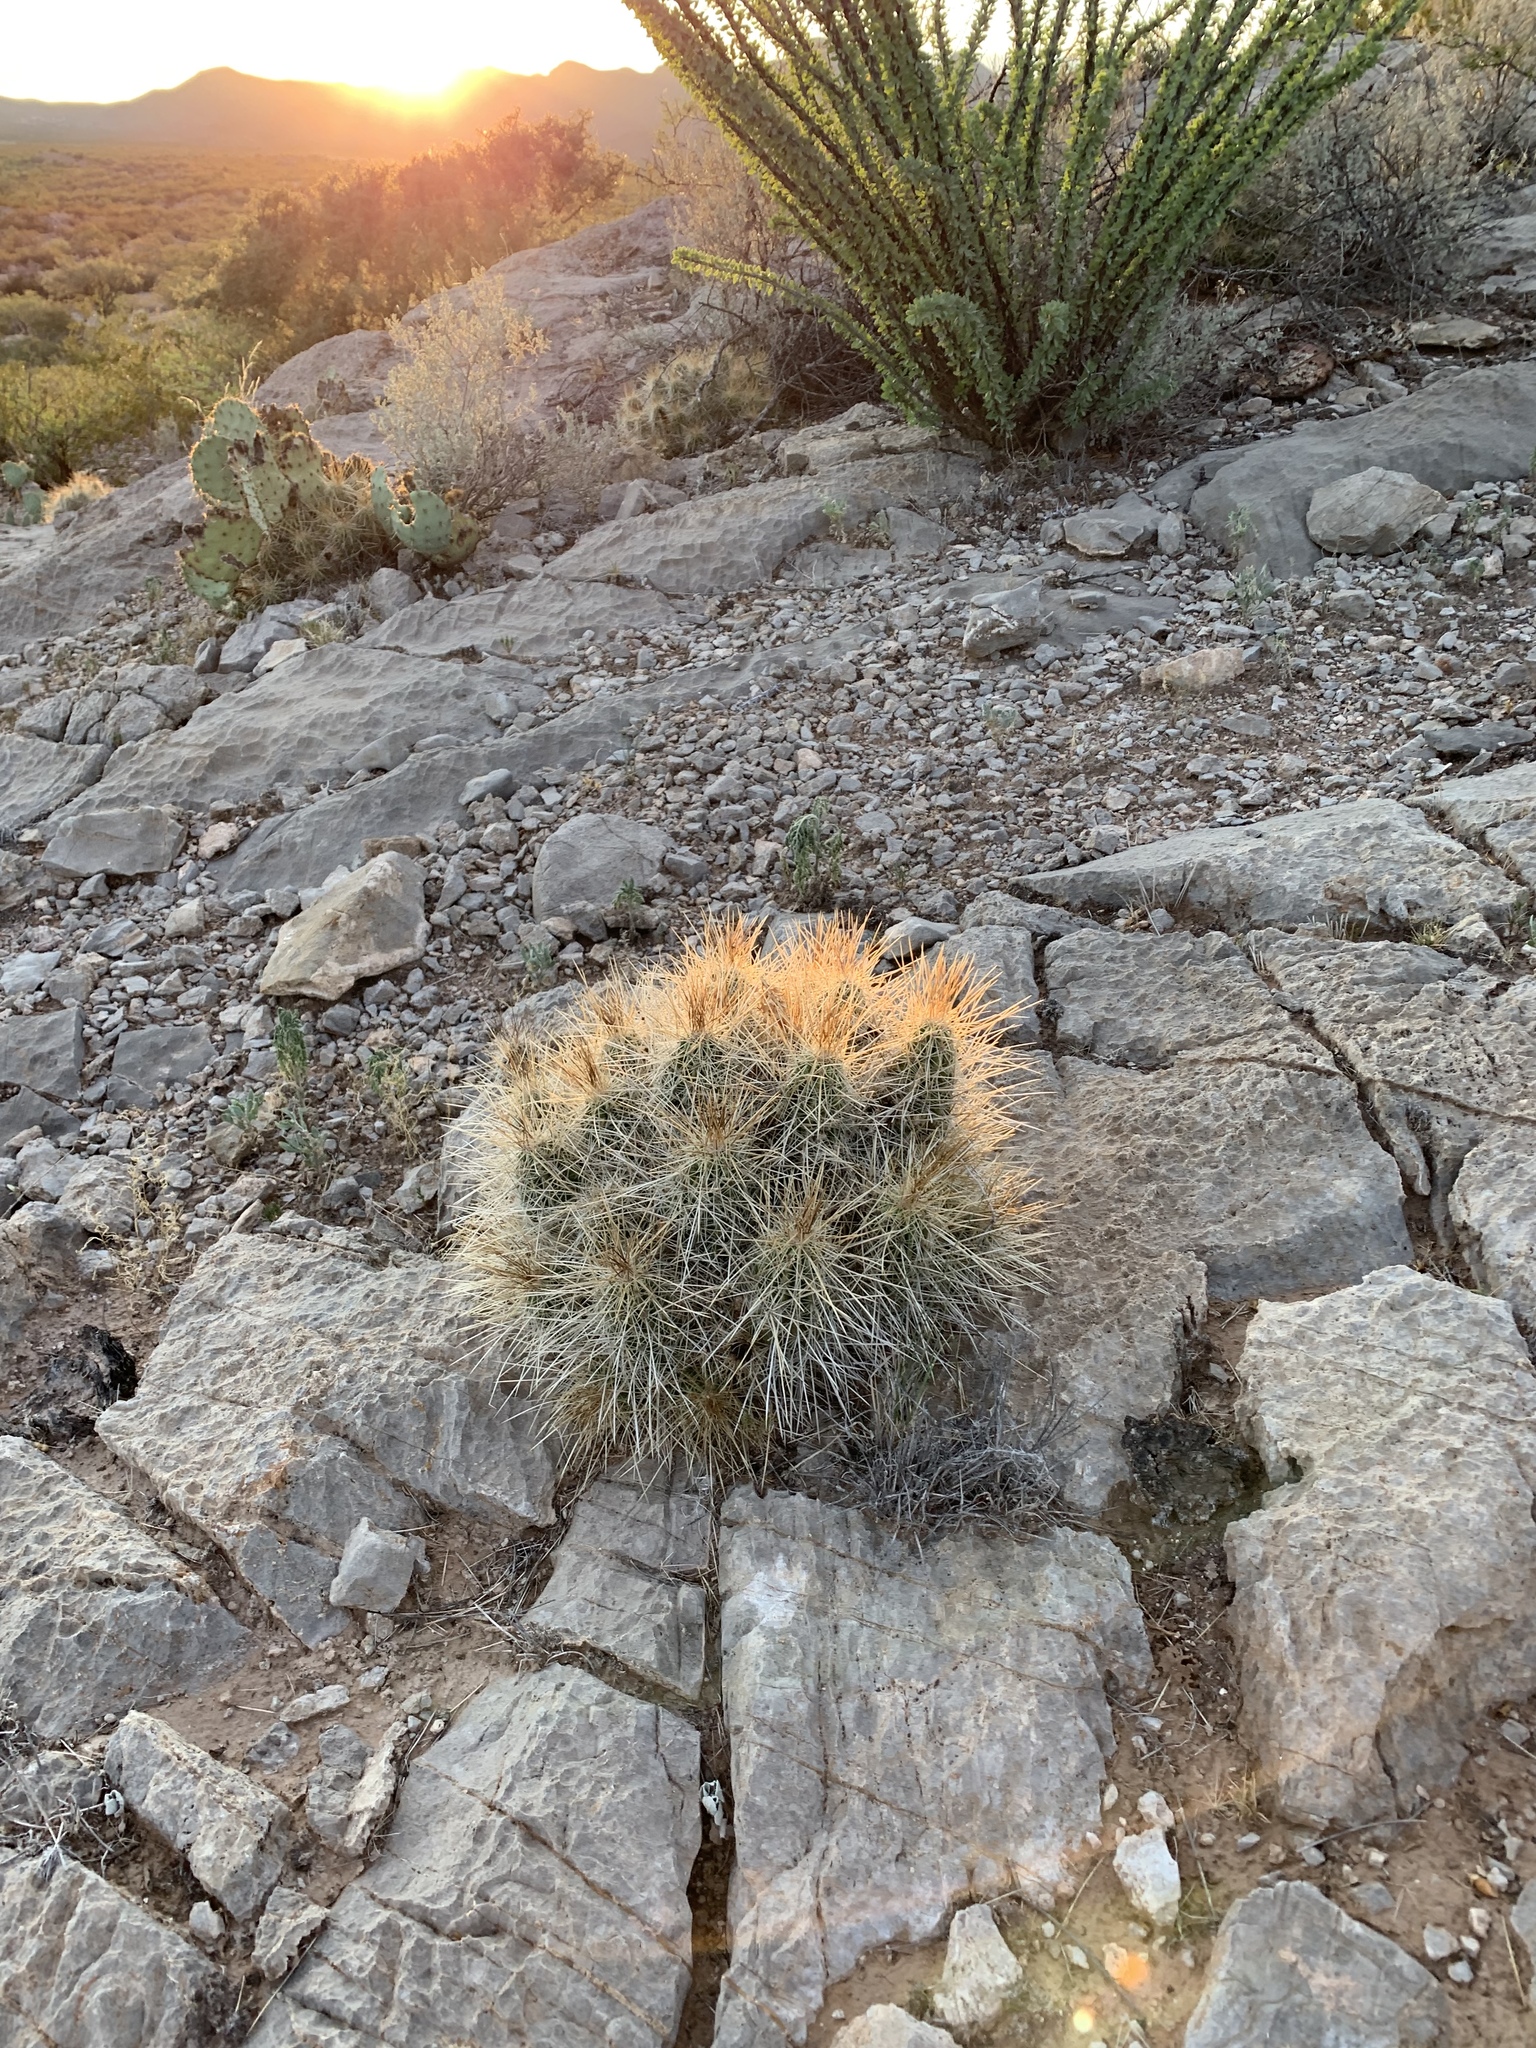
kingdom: Plantae
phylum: Tracheophyta
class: Magnoliopsida
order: Caryophyllales
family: Cactaceae
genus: Echinocereus
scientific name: Echinocereus stramineus
